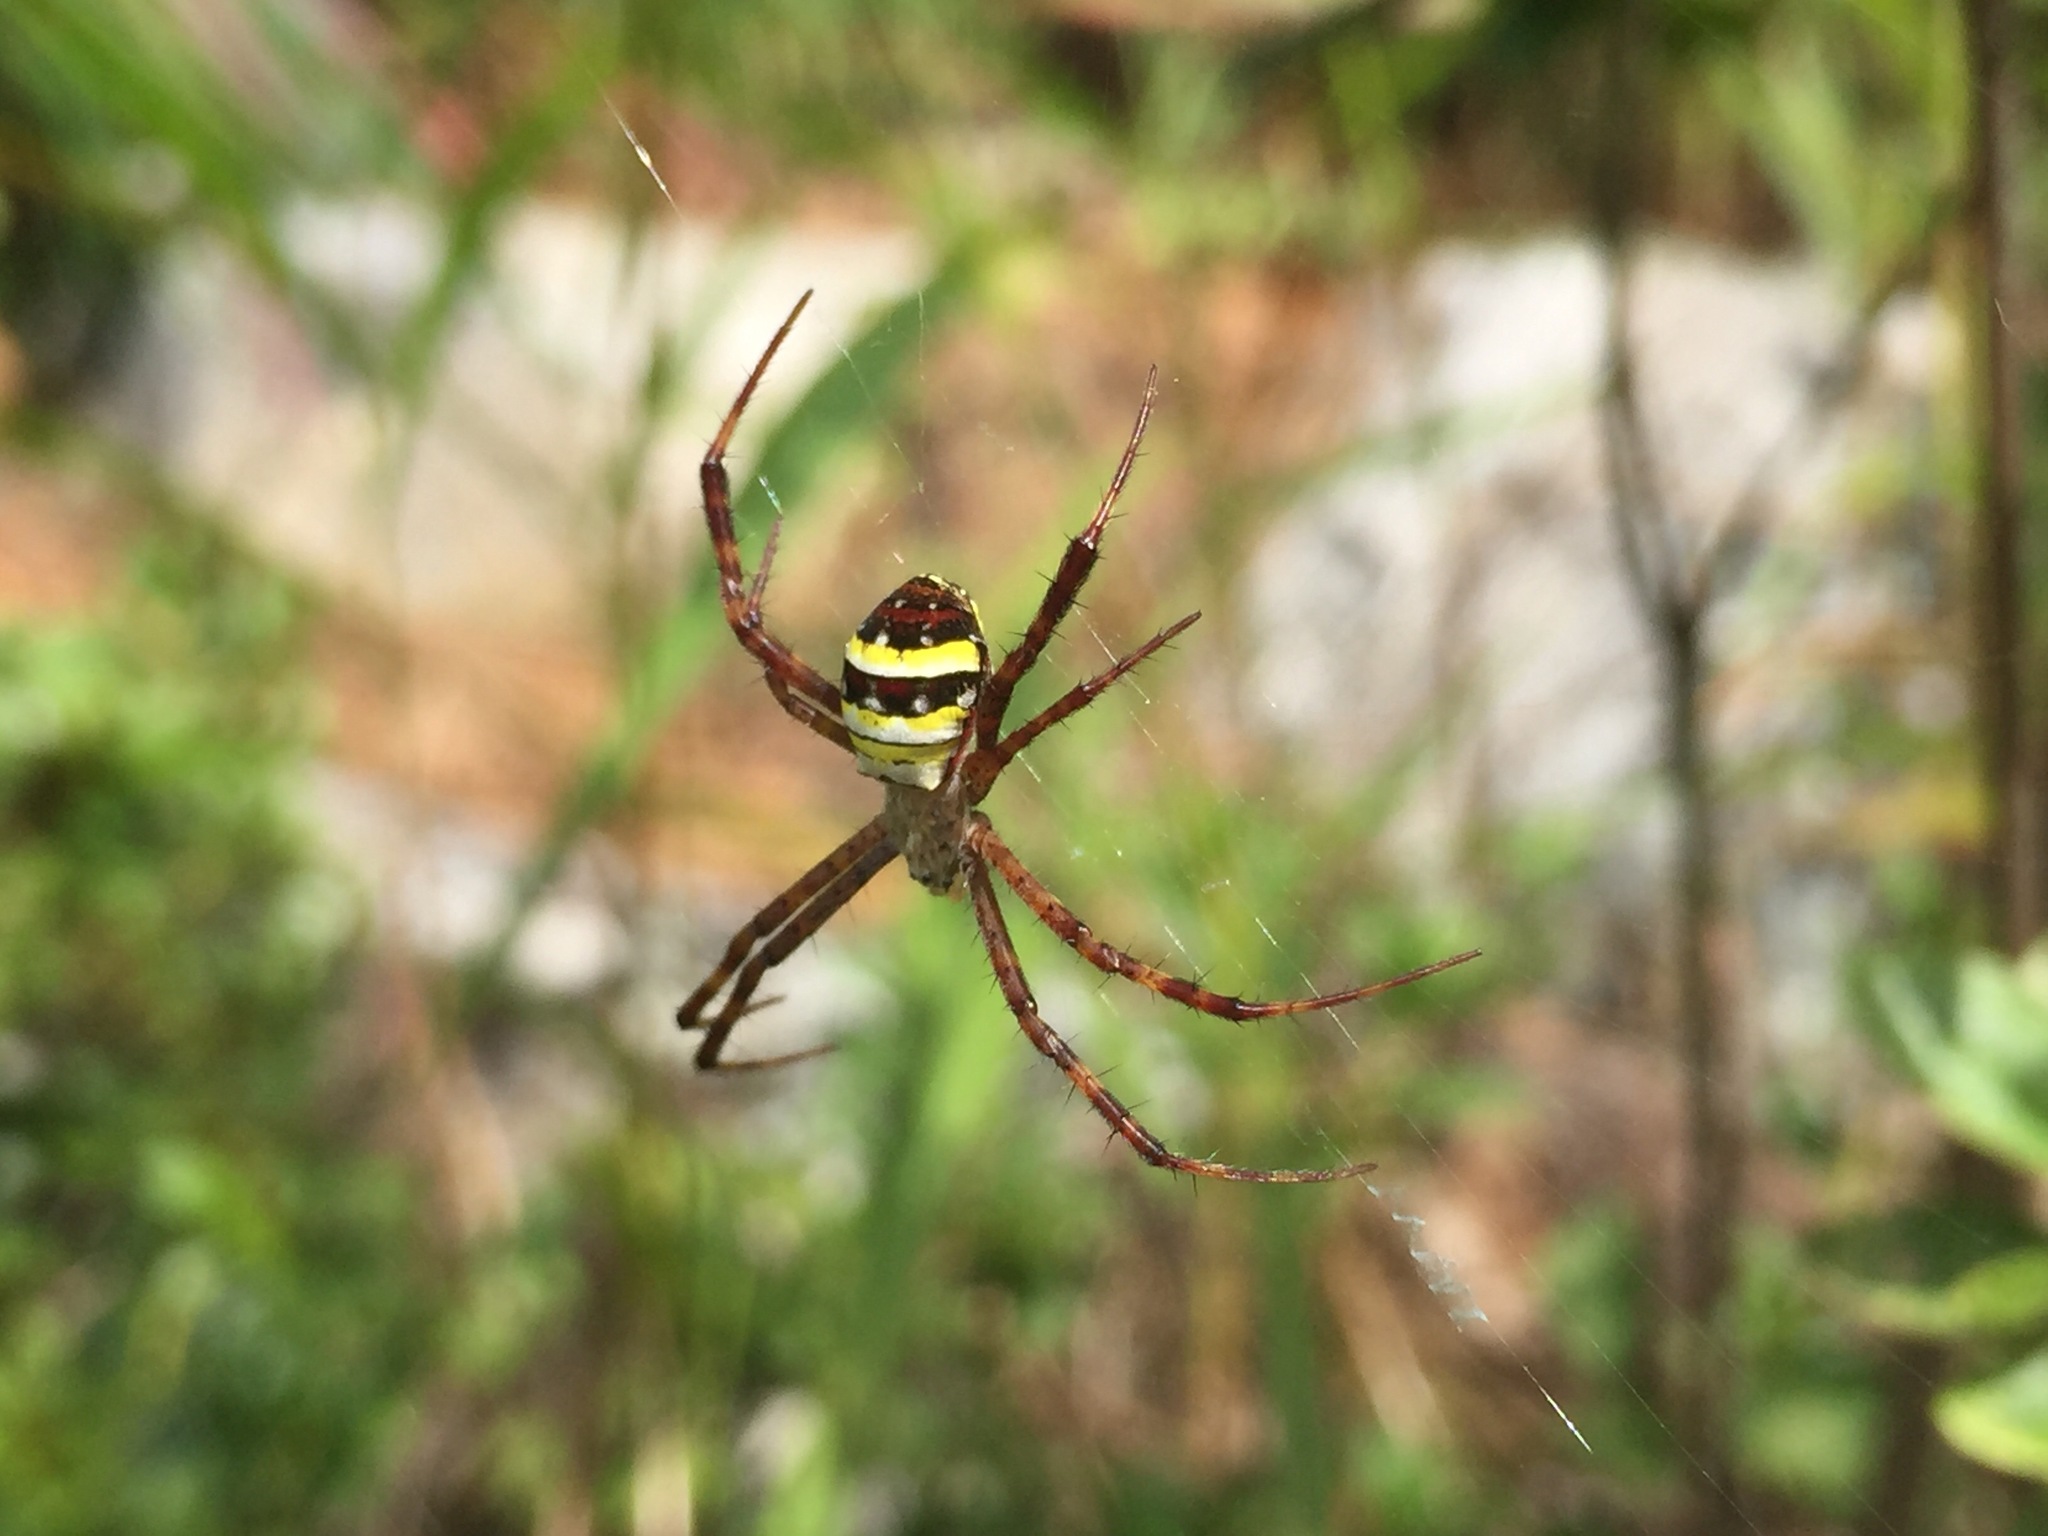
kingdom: Animalia
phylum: Arthropoda
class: Arachnida
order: Araneae
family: Araneidae
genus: Argiope
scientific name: Argiope minuta
